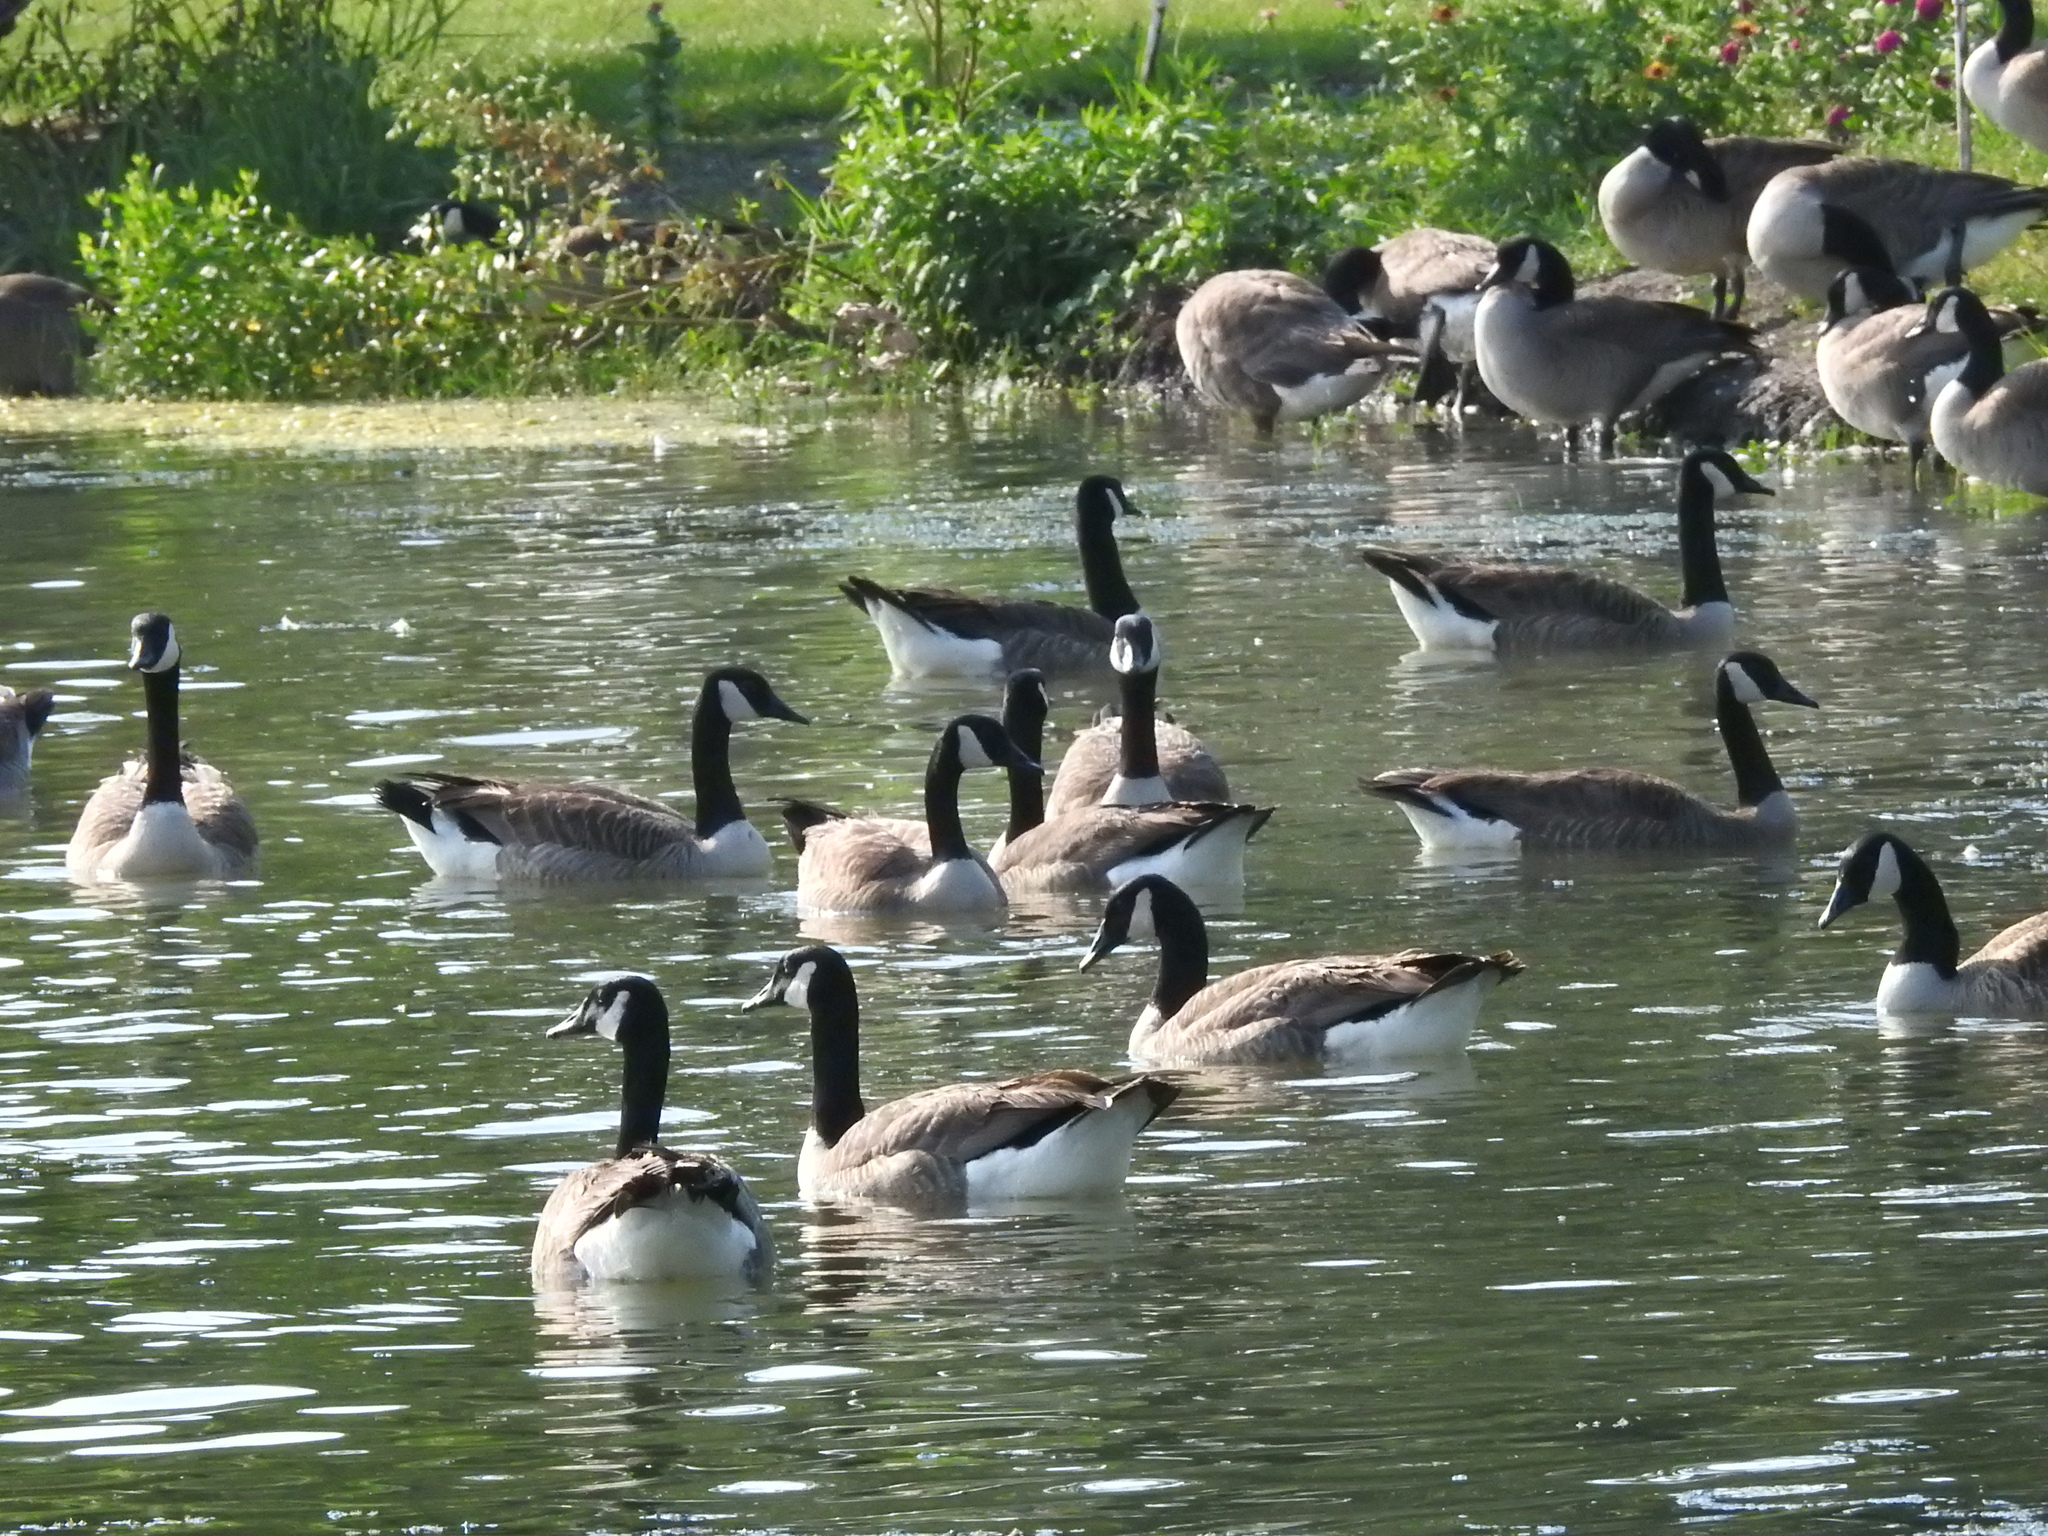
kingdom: Animalia
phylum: Chordata
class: Aves
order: Anseriformes
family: Anatidae
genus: Branta
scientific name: Branta canadensis
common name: Canada goose
